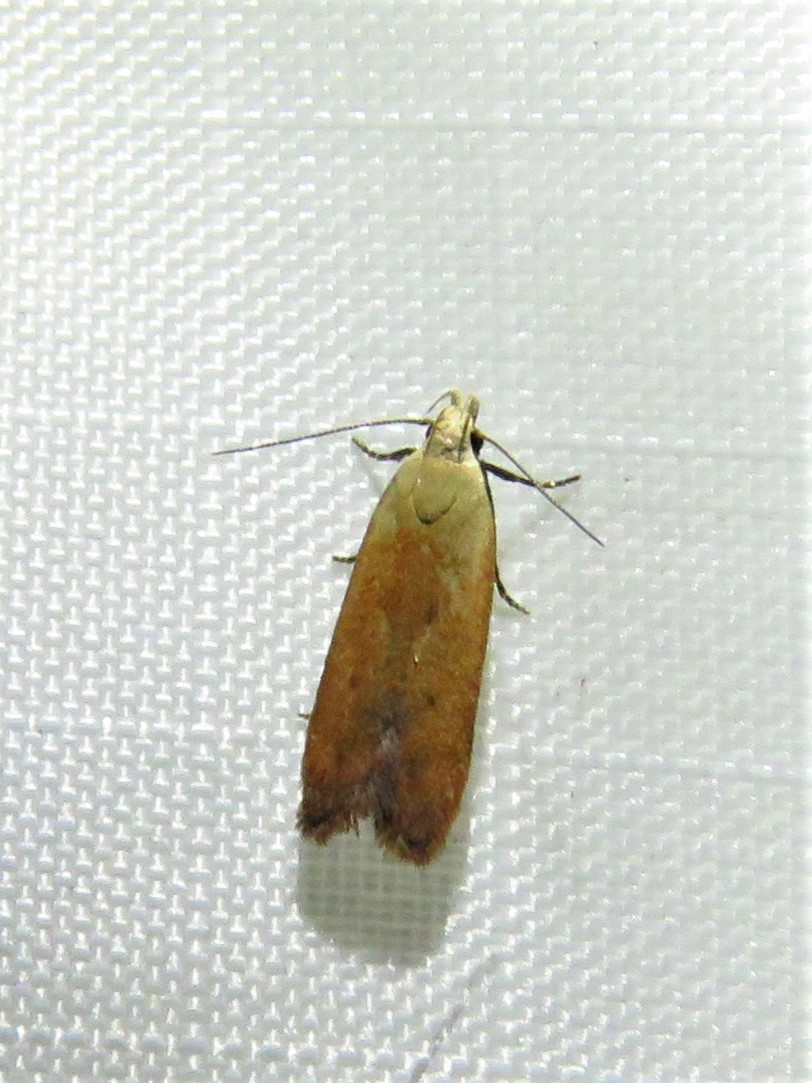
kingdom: Animalia
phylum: Arthropoda
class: Insecta
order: Lepidoptera
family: Gelechiidae
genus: Anacampsis
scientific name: Anacampsis fullonella
